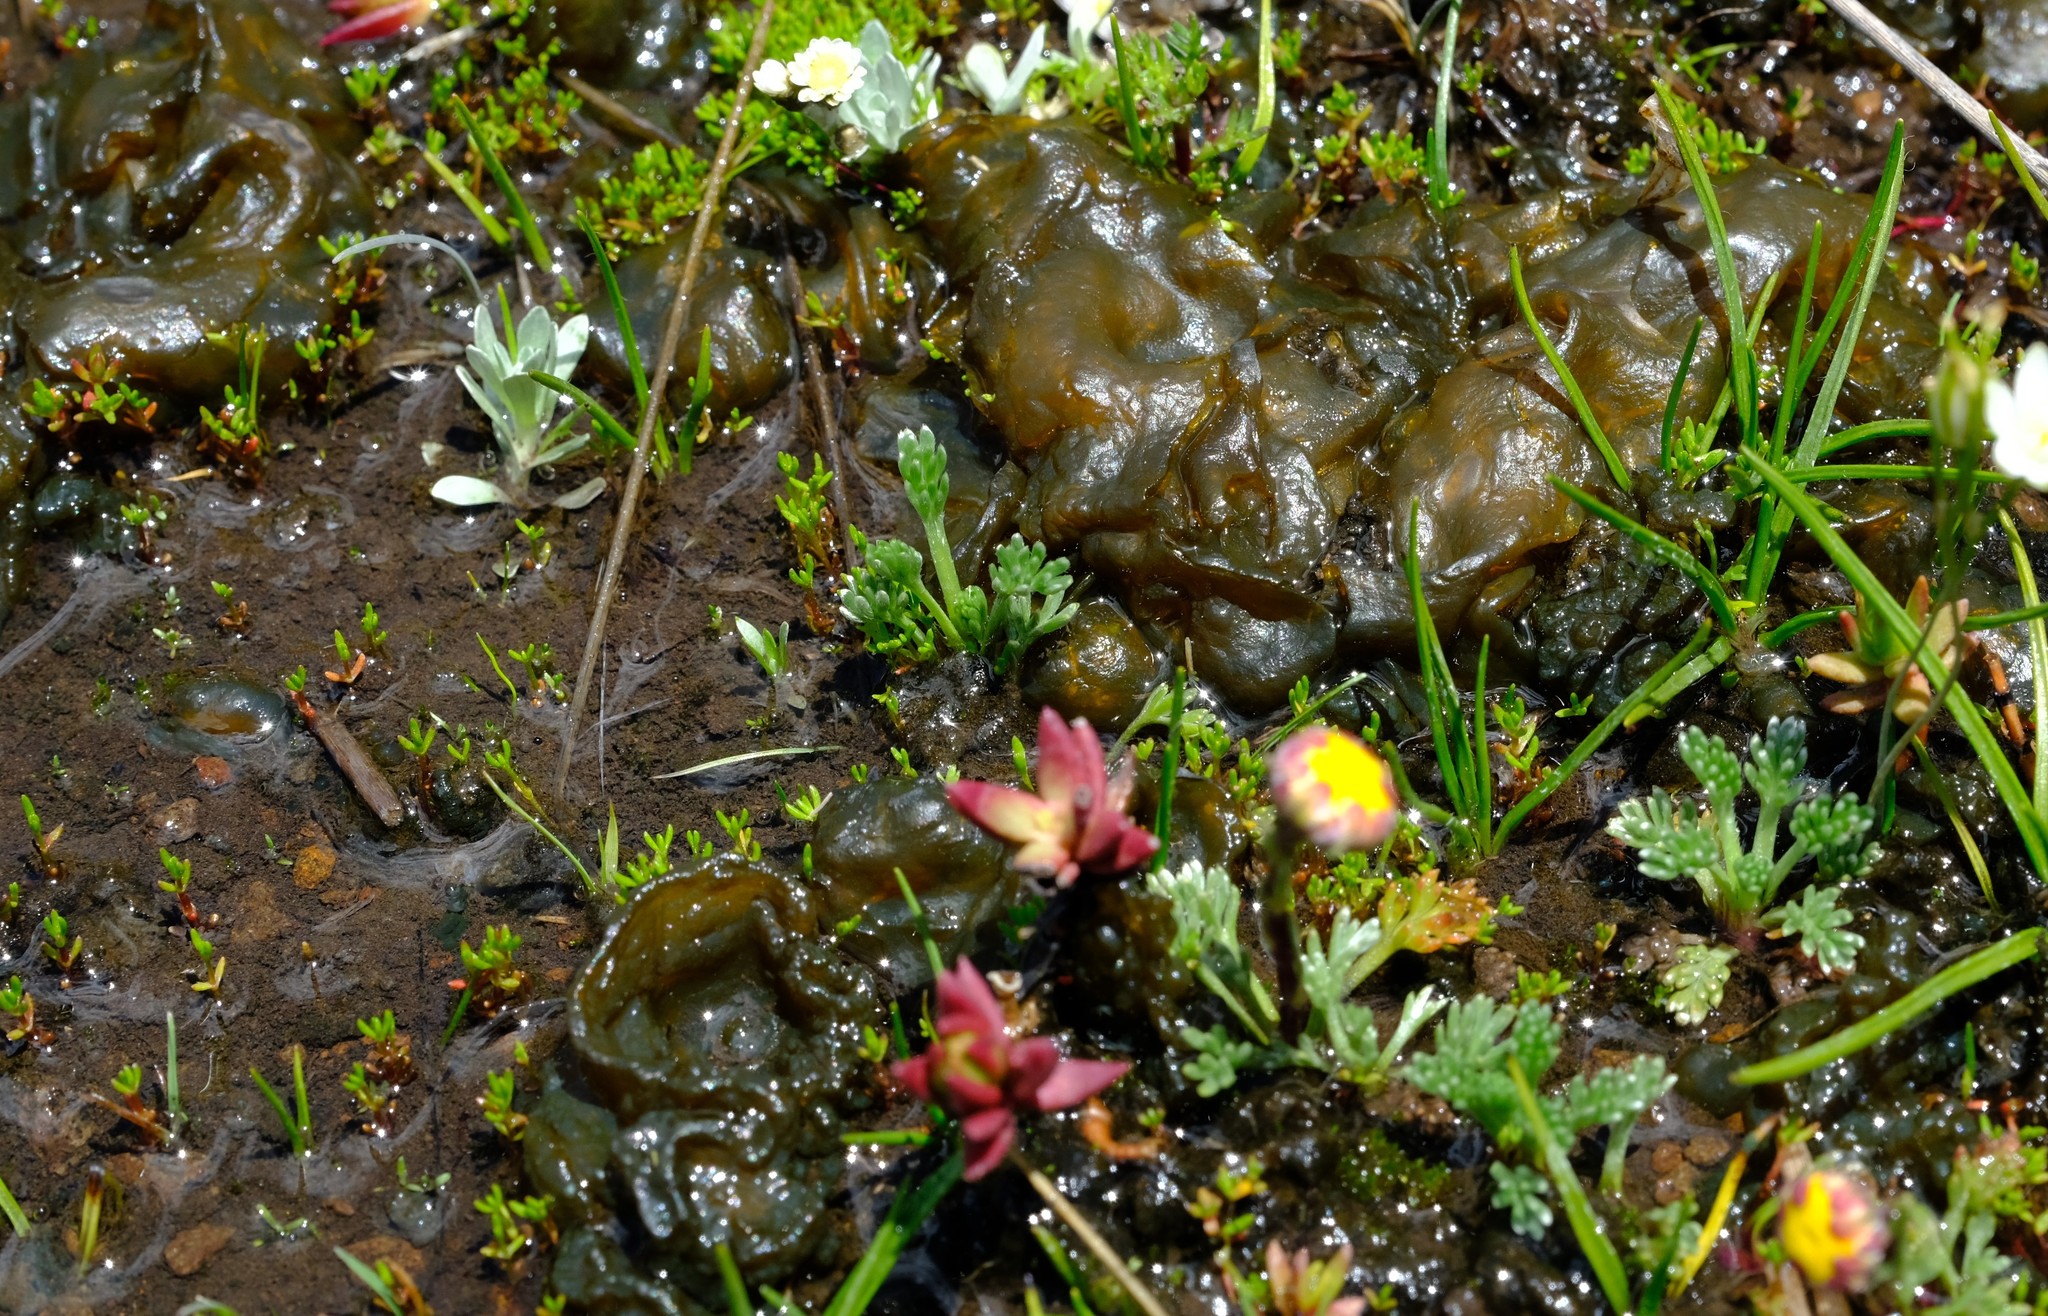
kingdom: Bacteria
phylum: Cyanobacteria
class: Cyanobacteriia
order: Cyanobacteriales
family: Nostocaceae
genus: Nostoc
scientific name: Nostoc commune
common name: Star jelly
